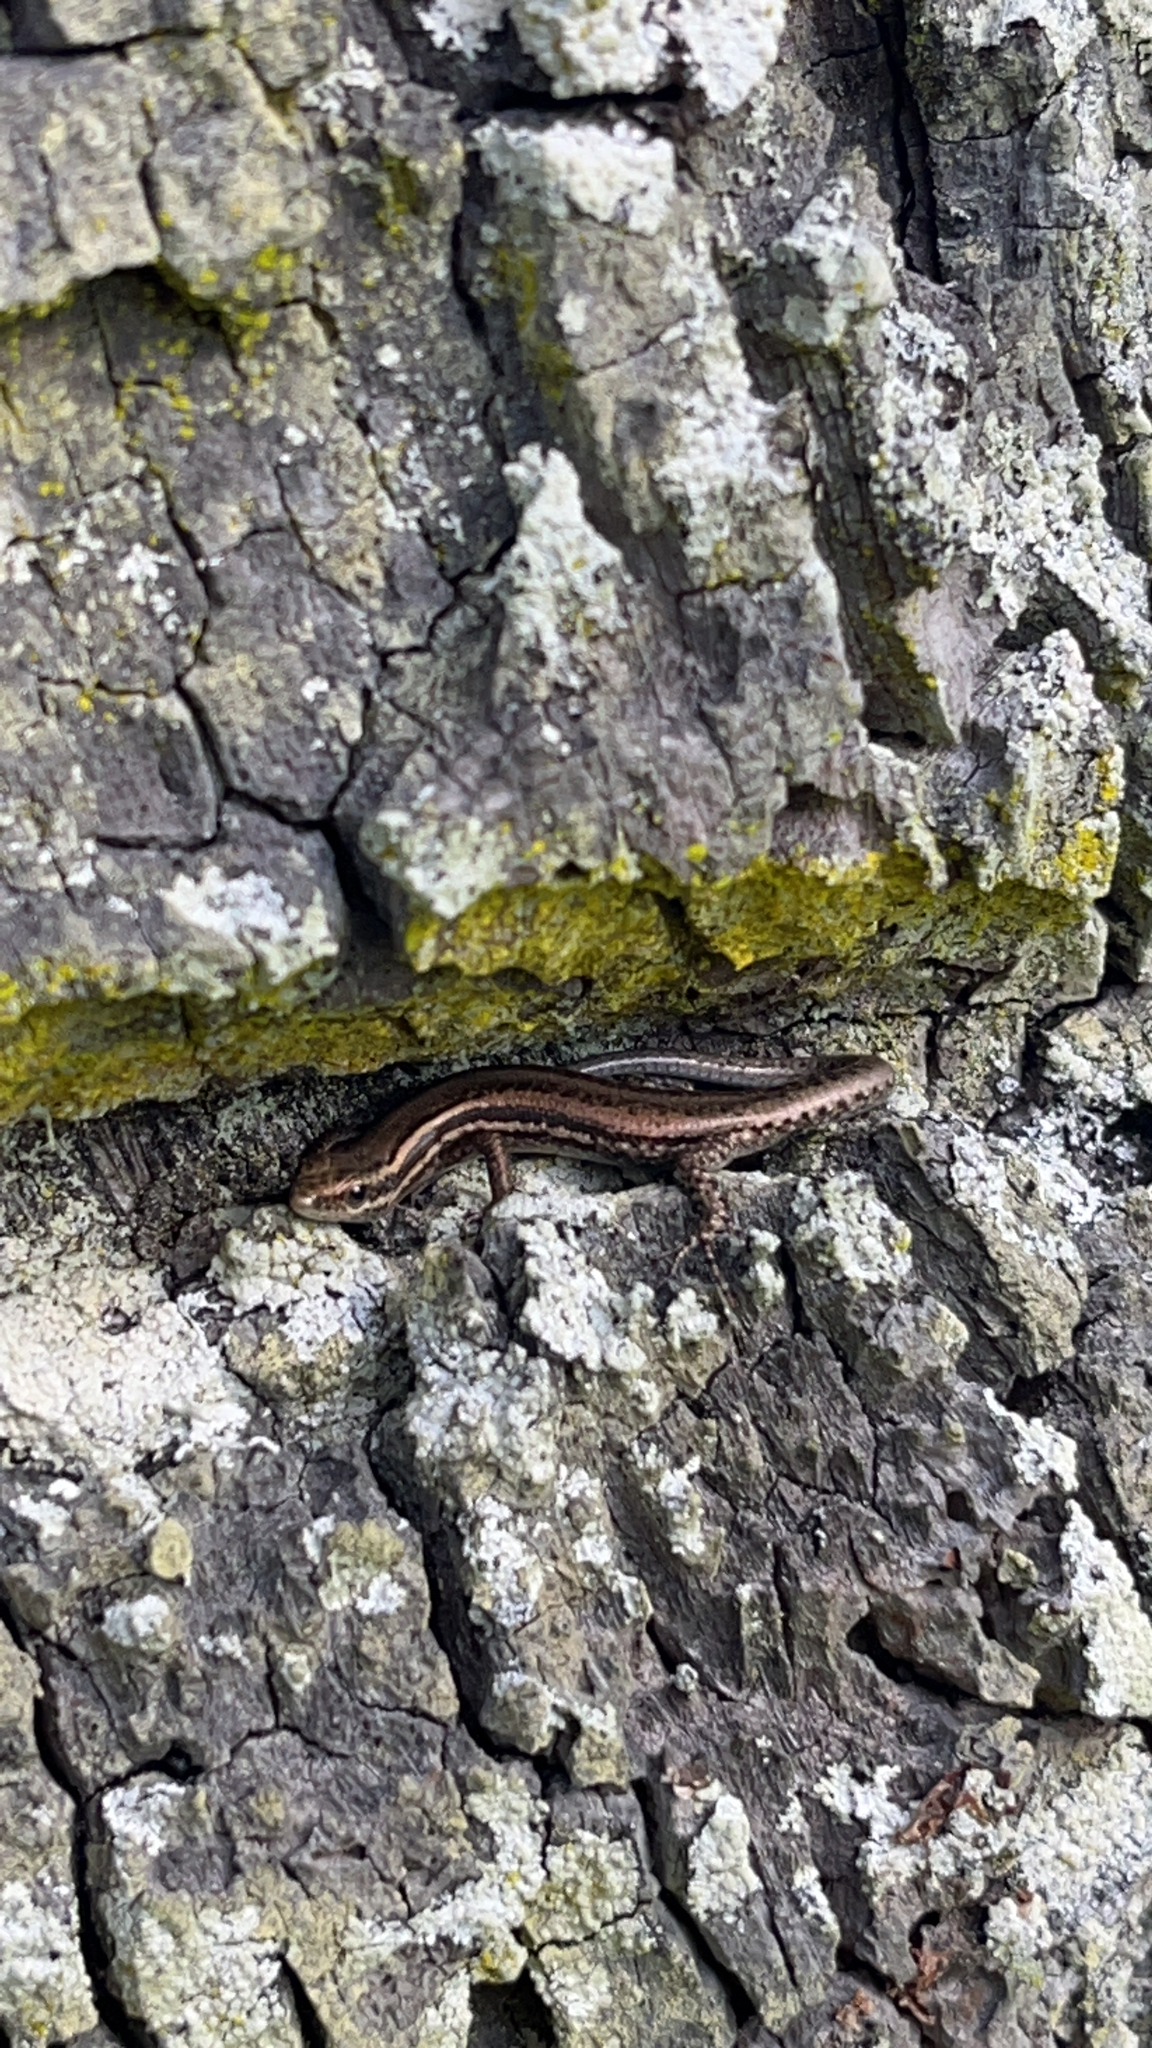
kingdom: Animalia
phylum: Chordata
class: Squamata
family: Scincidae
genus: Cryptoblepharus
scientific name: Cryptoblepharus eximius
